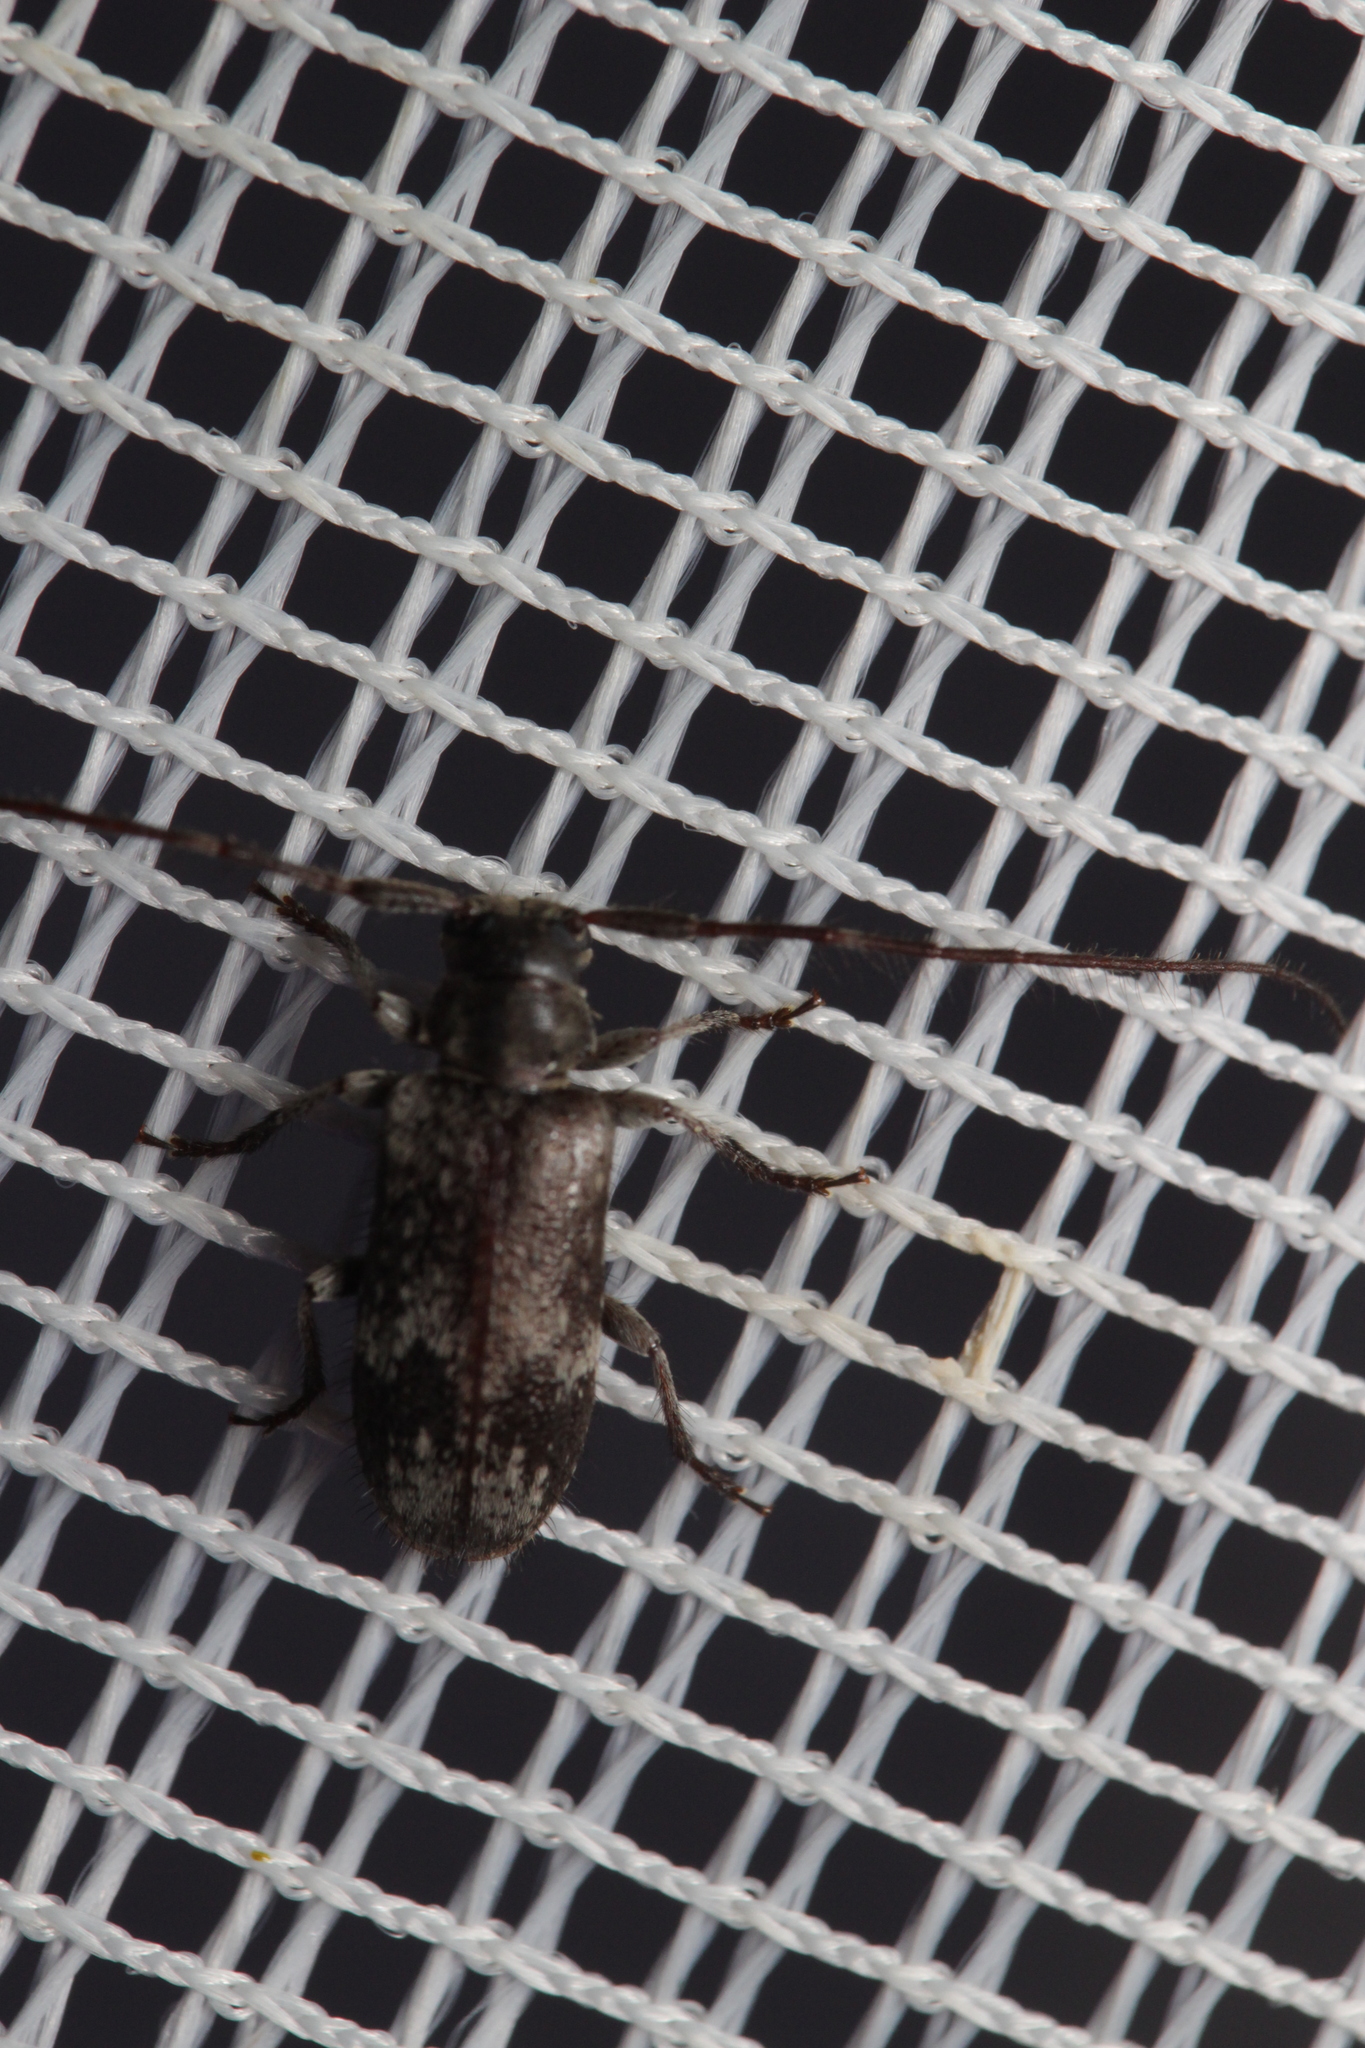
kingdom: Animalia
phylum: Arthropoda
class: Insecta
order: Coleoptera
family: Cerambycidae
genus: Exocentrus
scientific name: Exocentrus adspersus
